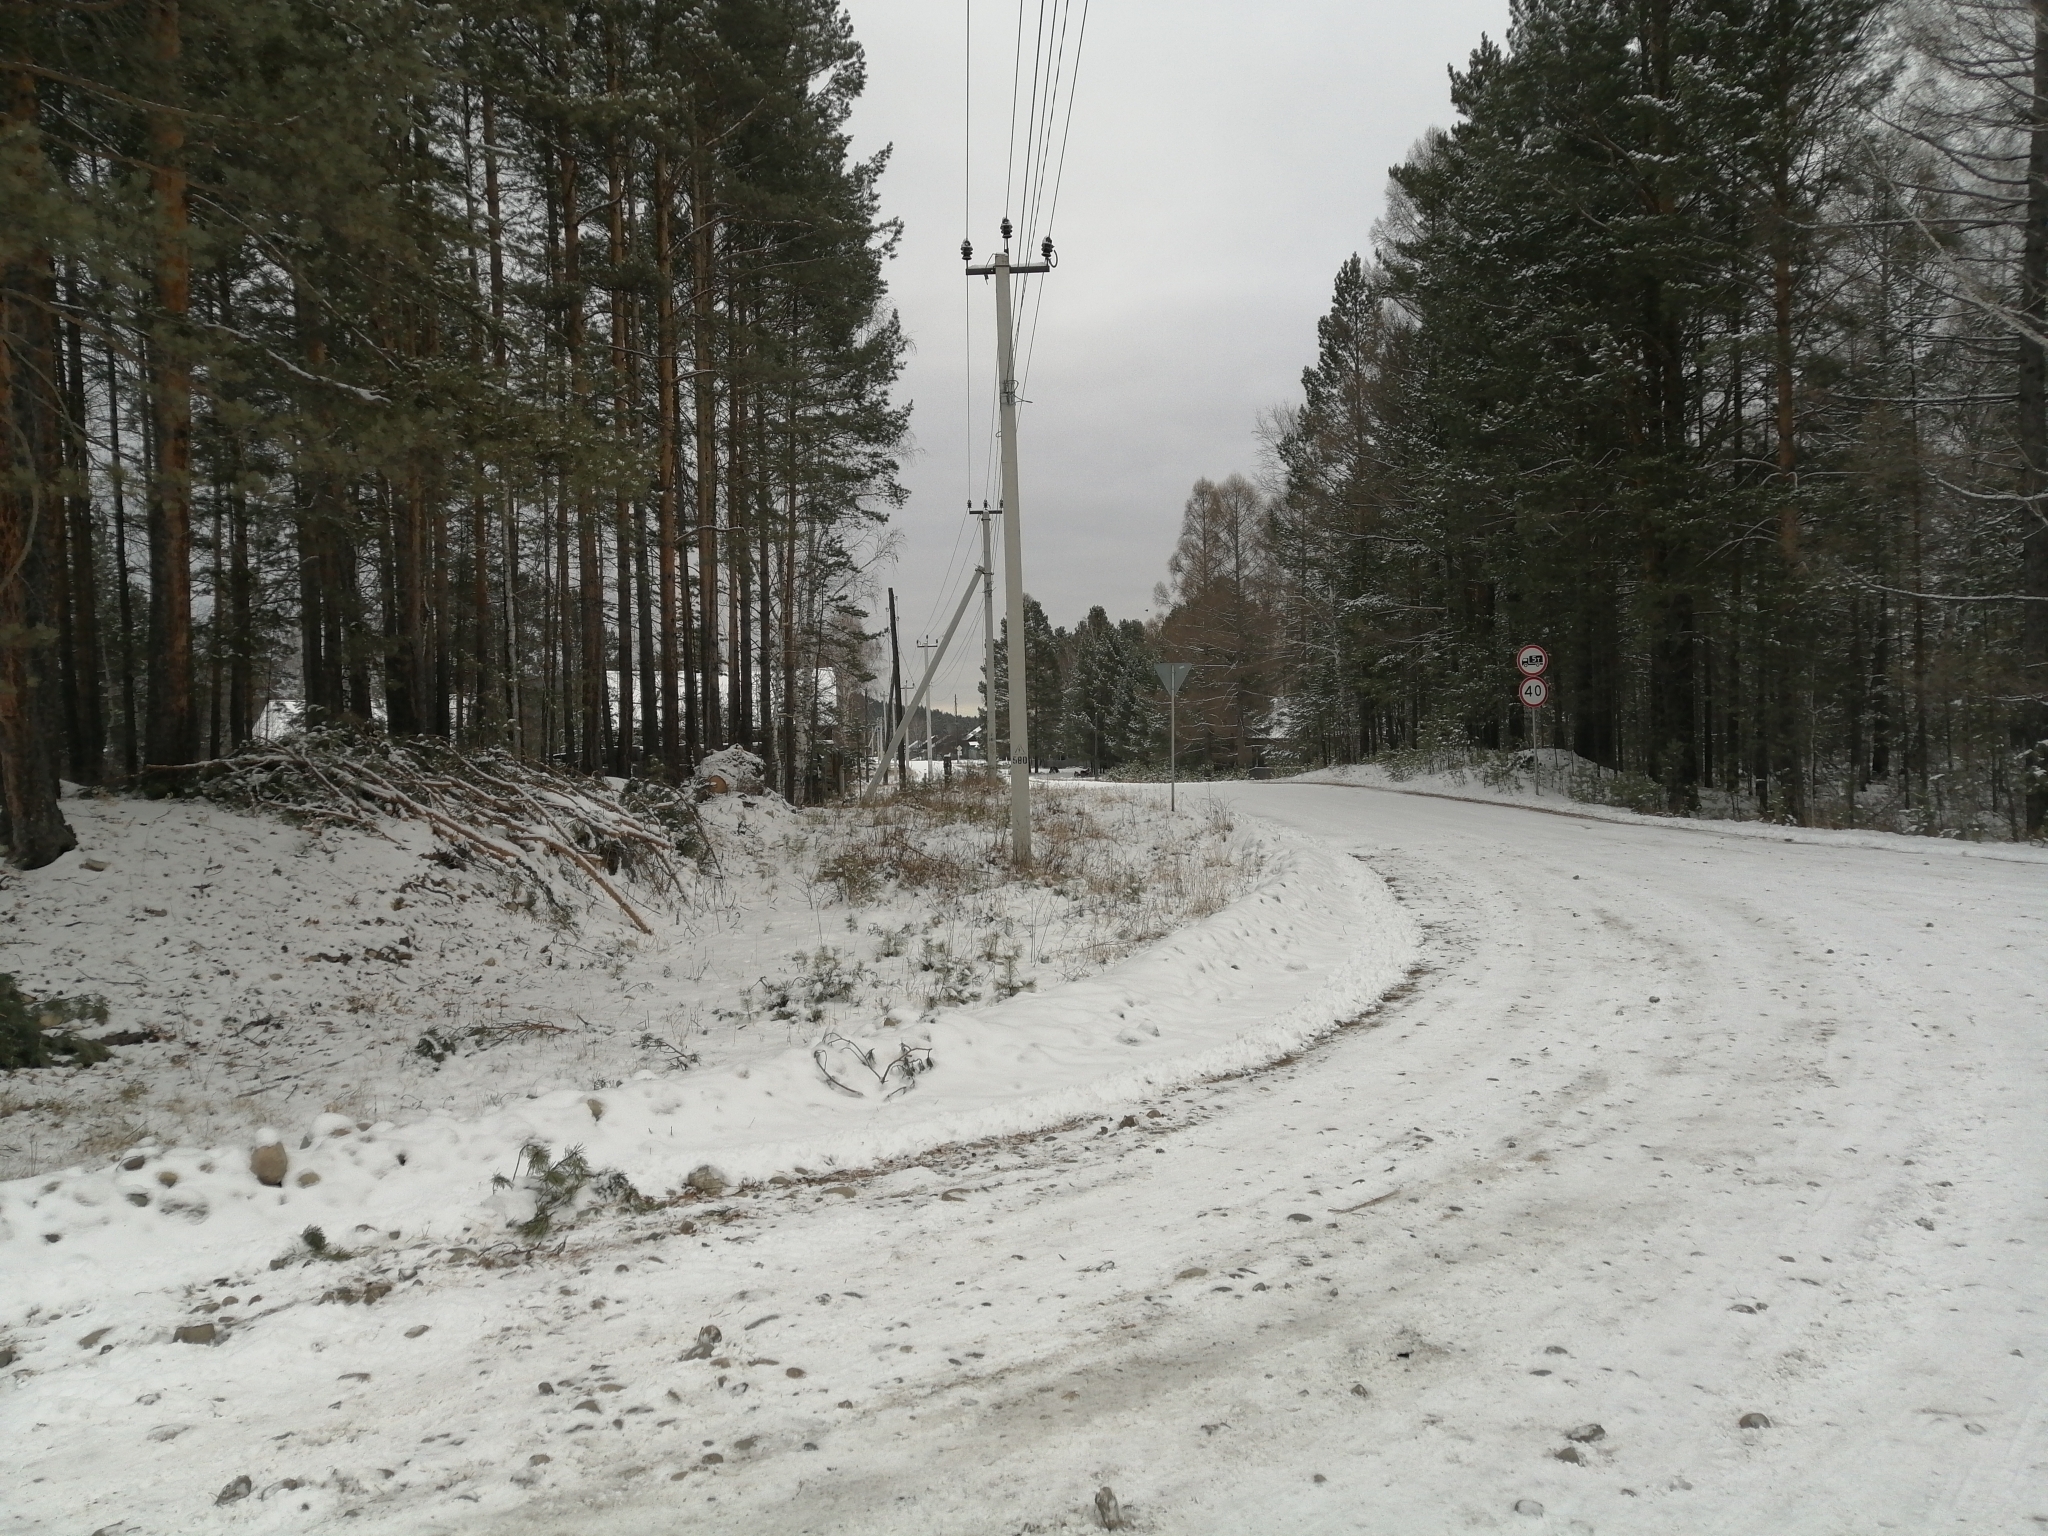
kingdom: Plantae
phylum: Tracheophyta
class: Pinopsida
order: Pinales
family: Pinaceae
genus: Pinus
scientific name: Pinus sylvestris
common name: Scots pine
